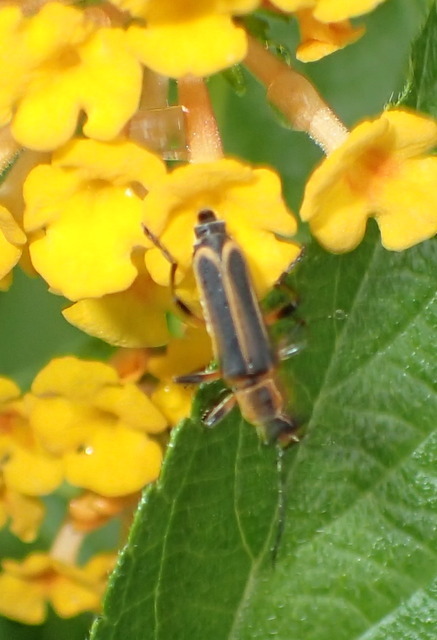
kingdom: Animalia
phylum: Arthropoda
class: Insecta
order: Coleoptera
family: Cantharidae
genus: Chauliognathus
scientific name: Chauliognathus marginatus
